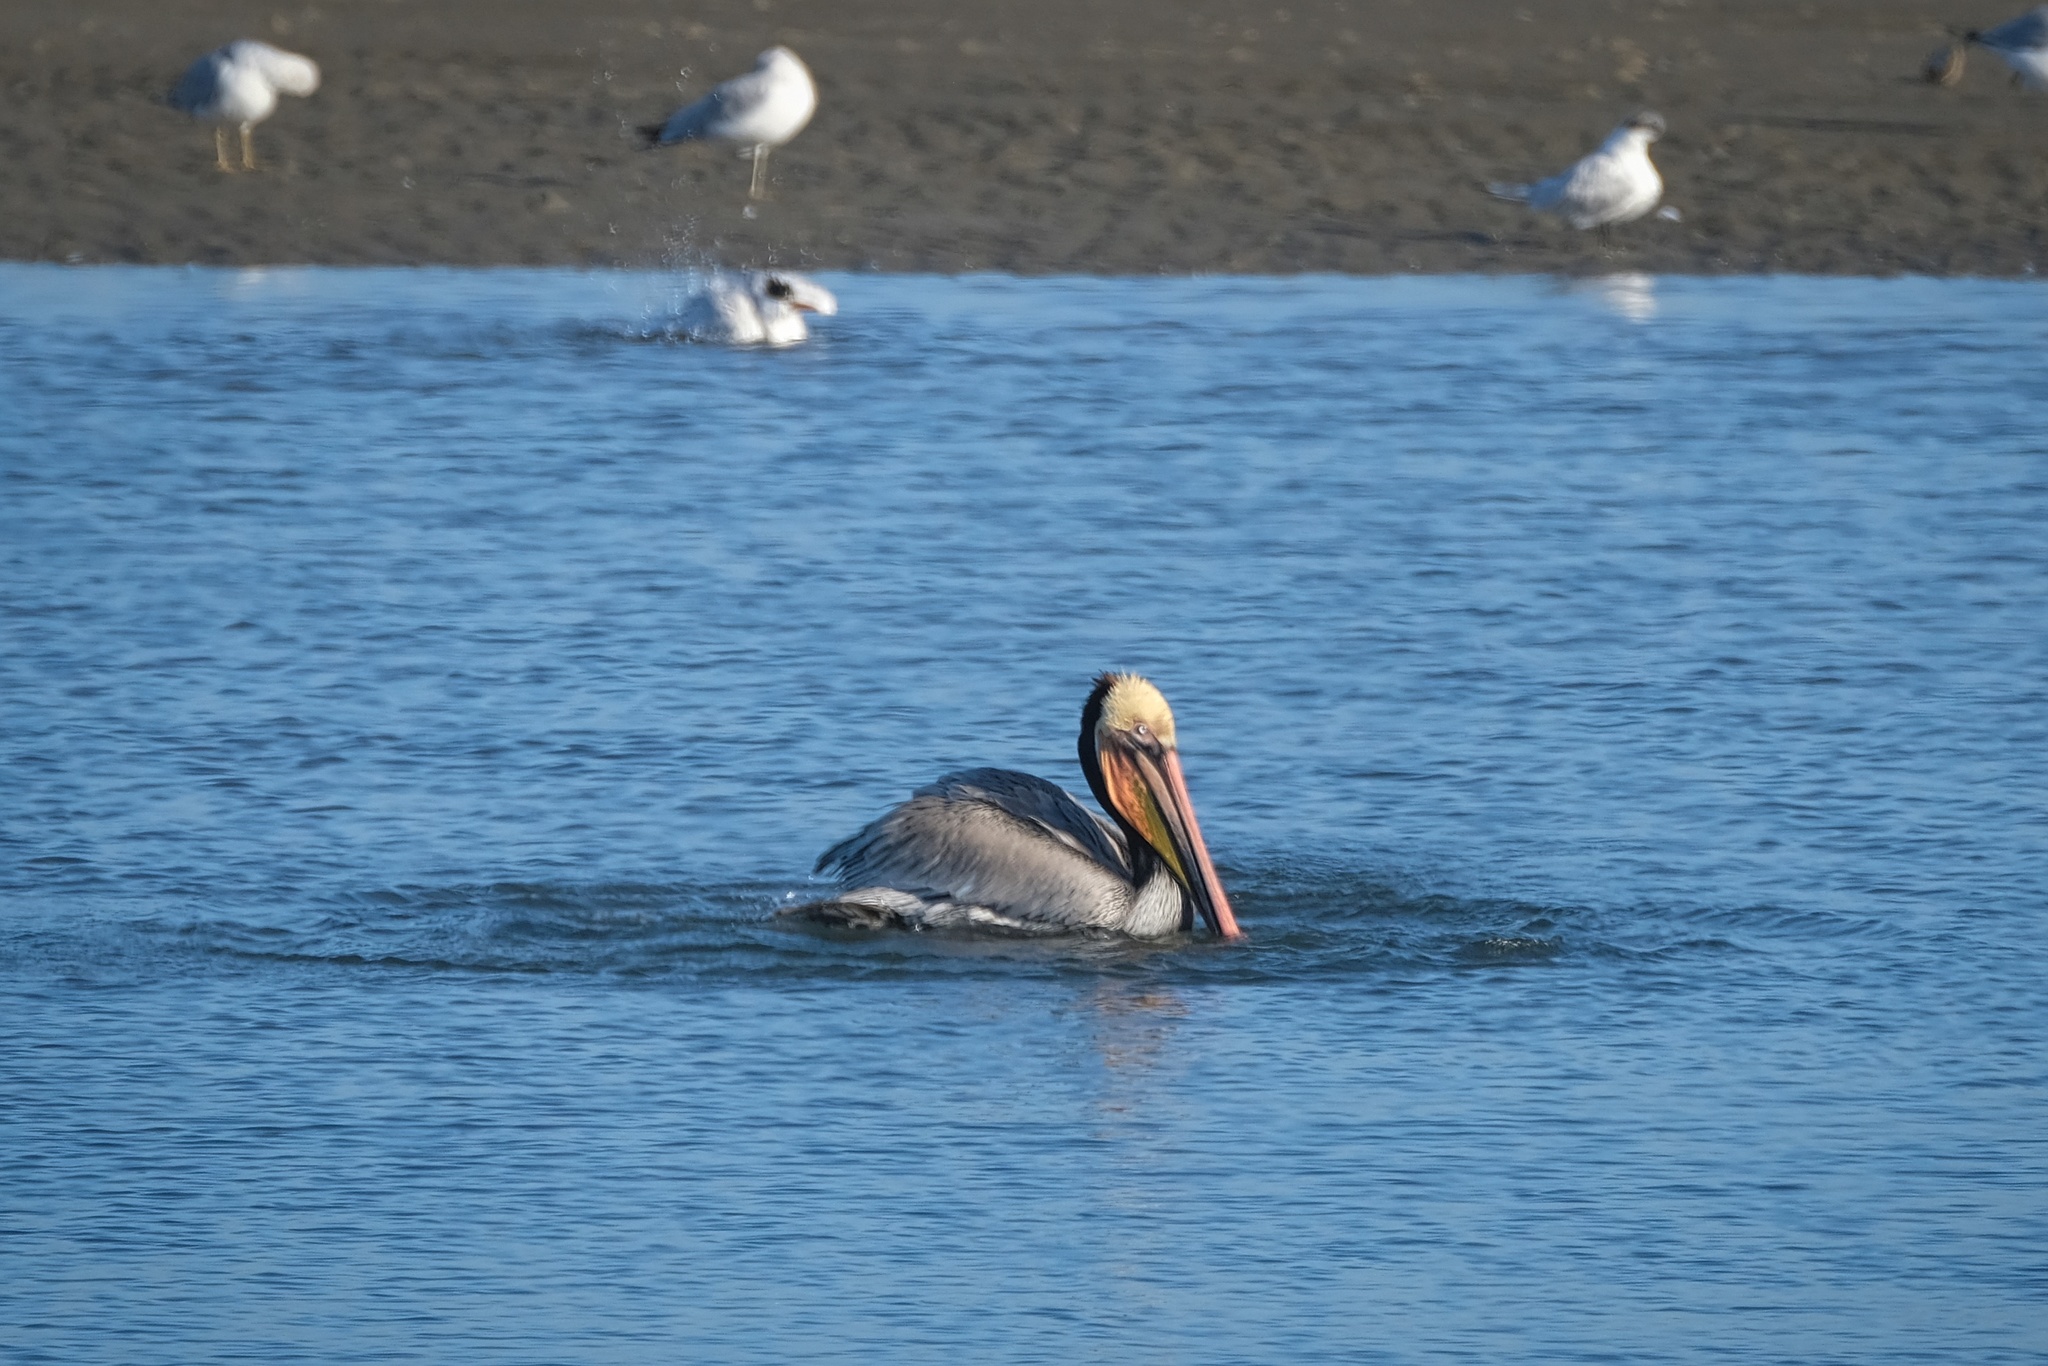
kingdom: Animalia
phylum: Chordata
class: Aves
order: Pelecaniformes
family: Pelecanidae
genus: Pelecanus
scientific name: Pelecanus occidentalis
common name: Brown pelican
